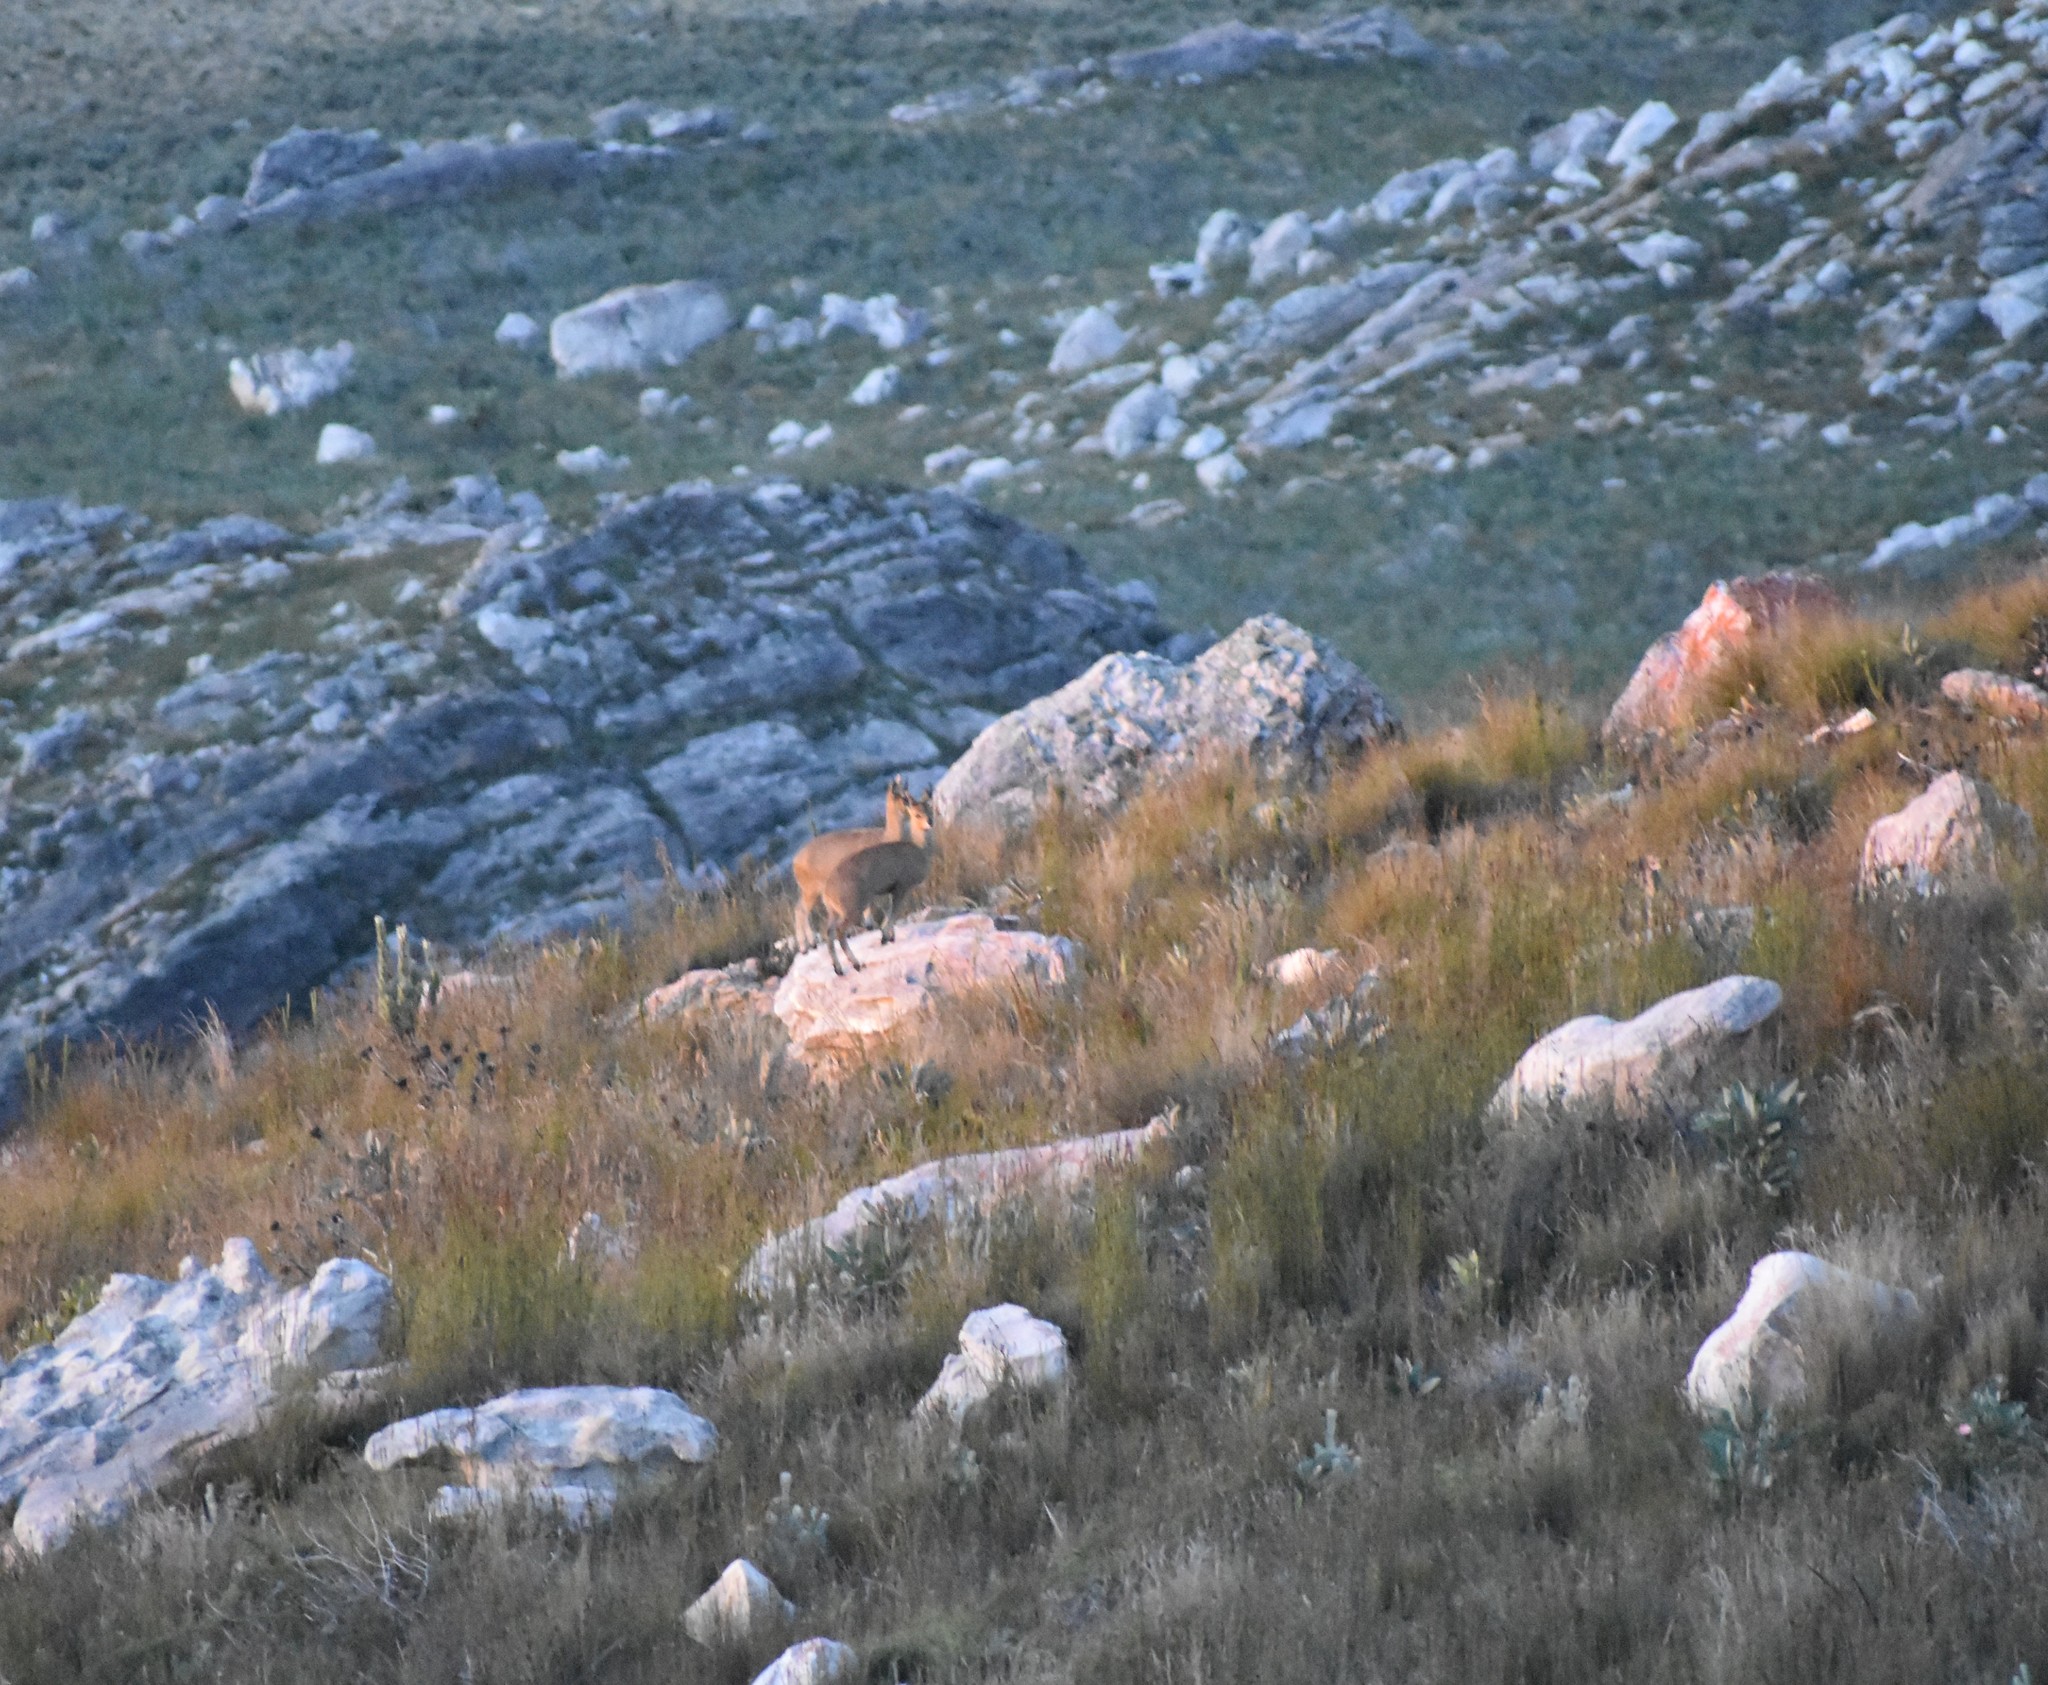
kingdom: Animalia
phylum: Chordata
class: Mammalia
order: Artiodactyla
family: Bovidae
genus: Oreotragus
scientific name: Oreotragus oreotragus
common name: Klipspringer
